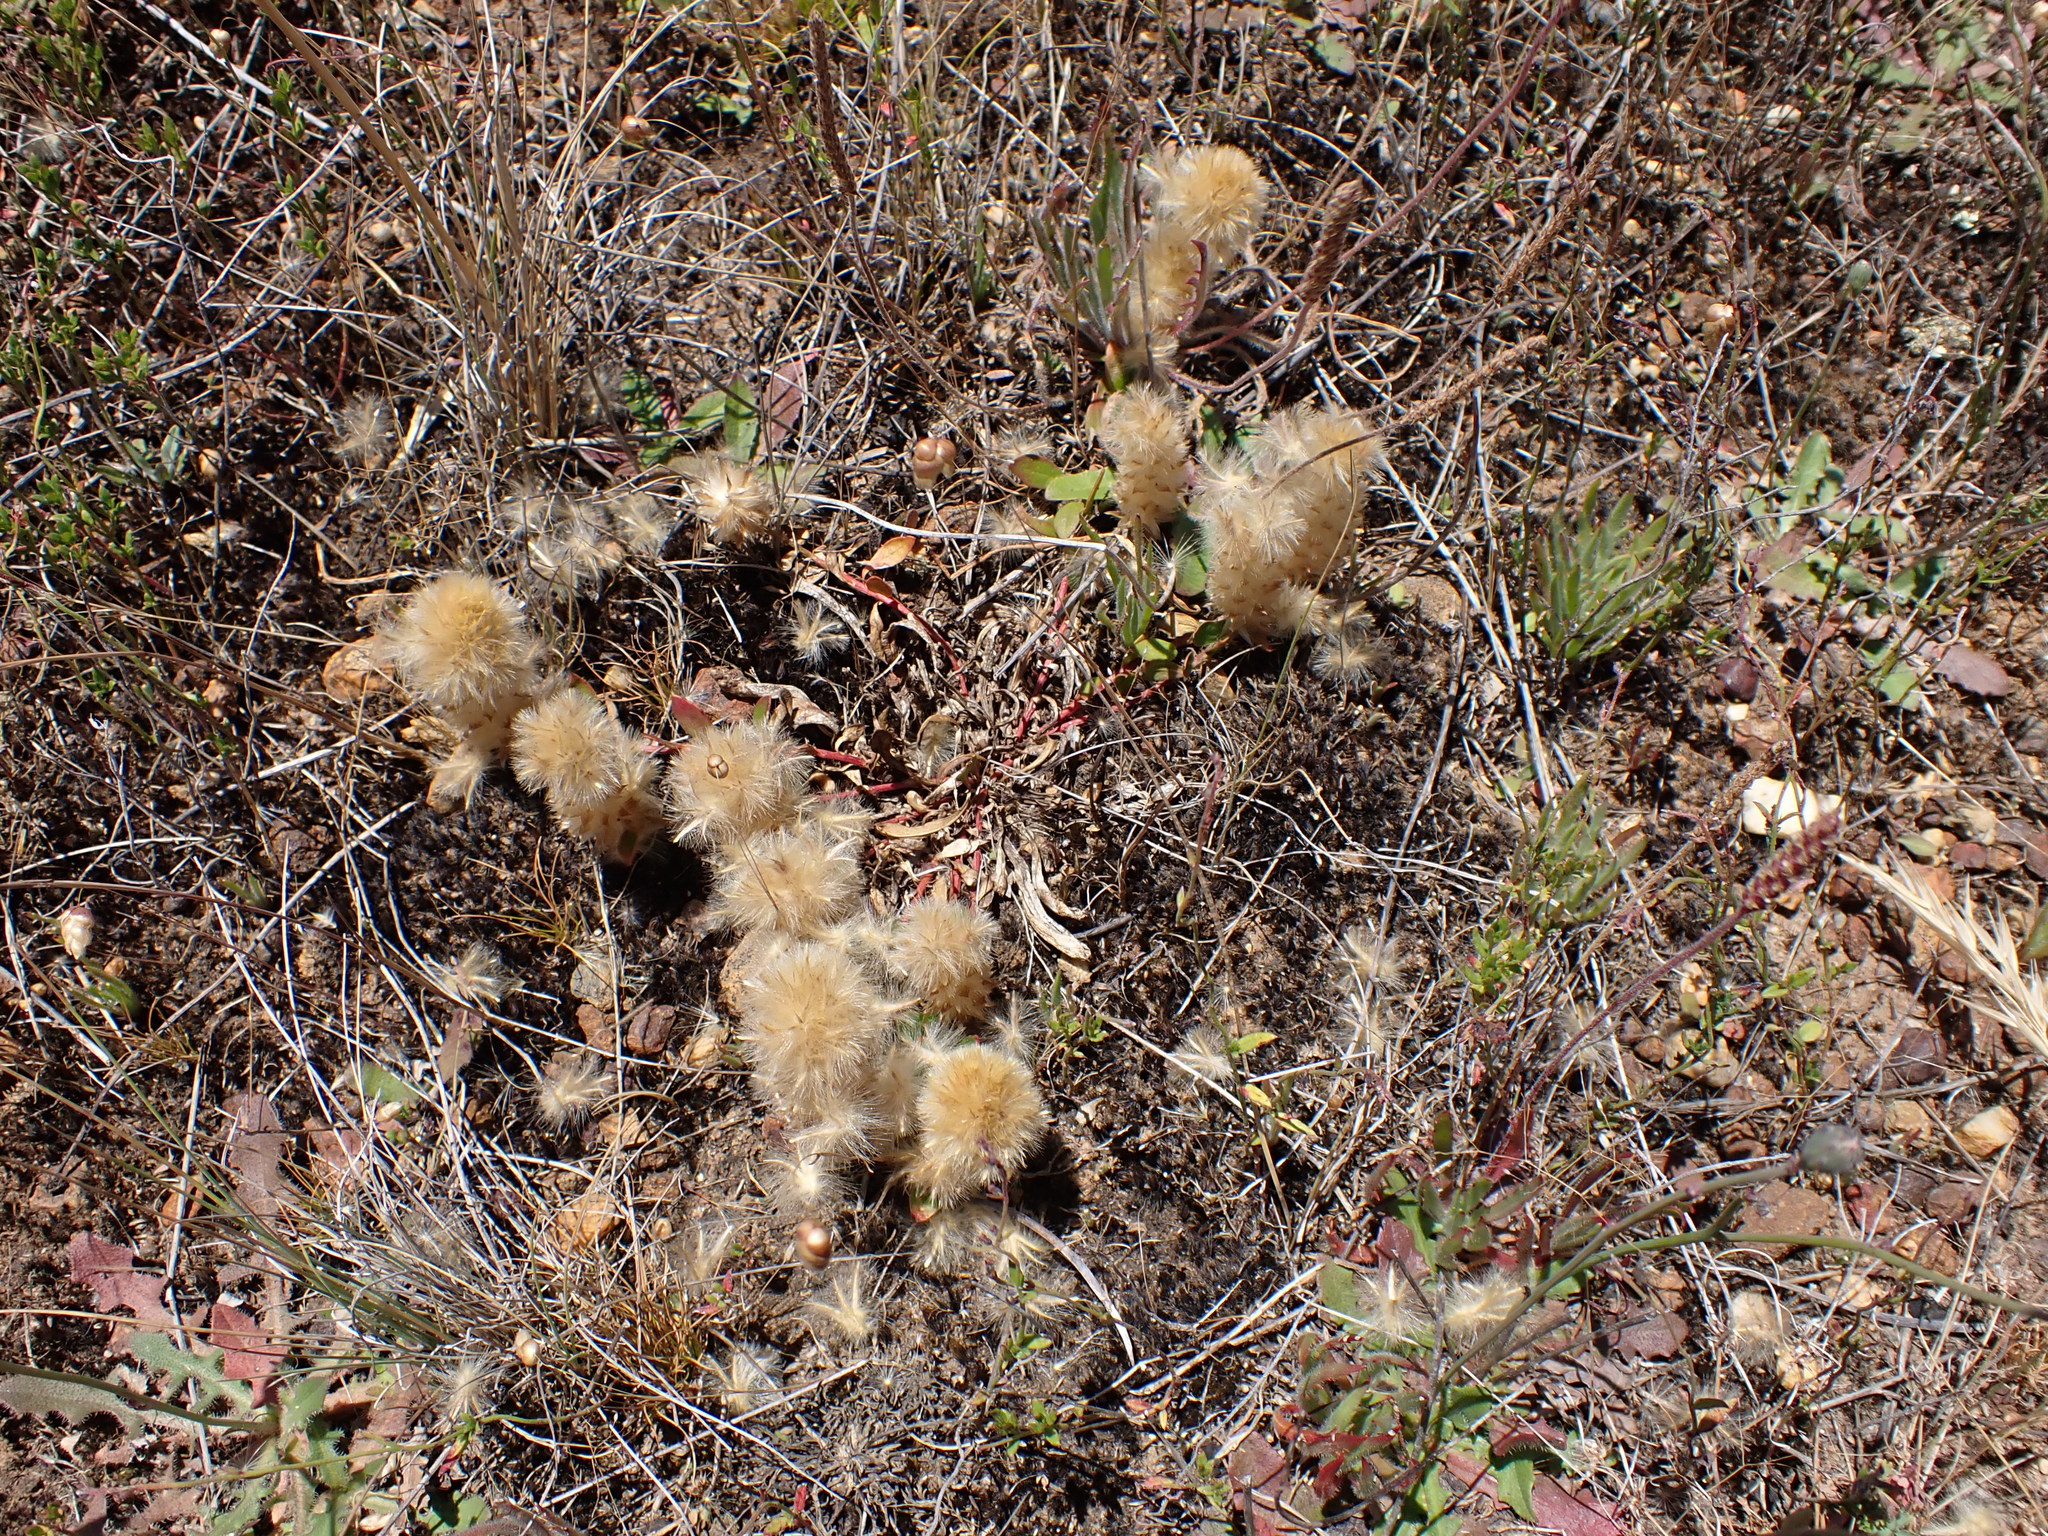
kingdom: Plantae
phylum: Tracheophyta
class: Magnoliopsida
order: Caryophyllales
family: Amaranthaceae
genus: Ptilotus
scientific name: Ptilotus spathulatus
